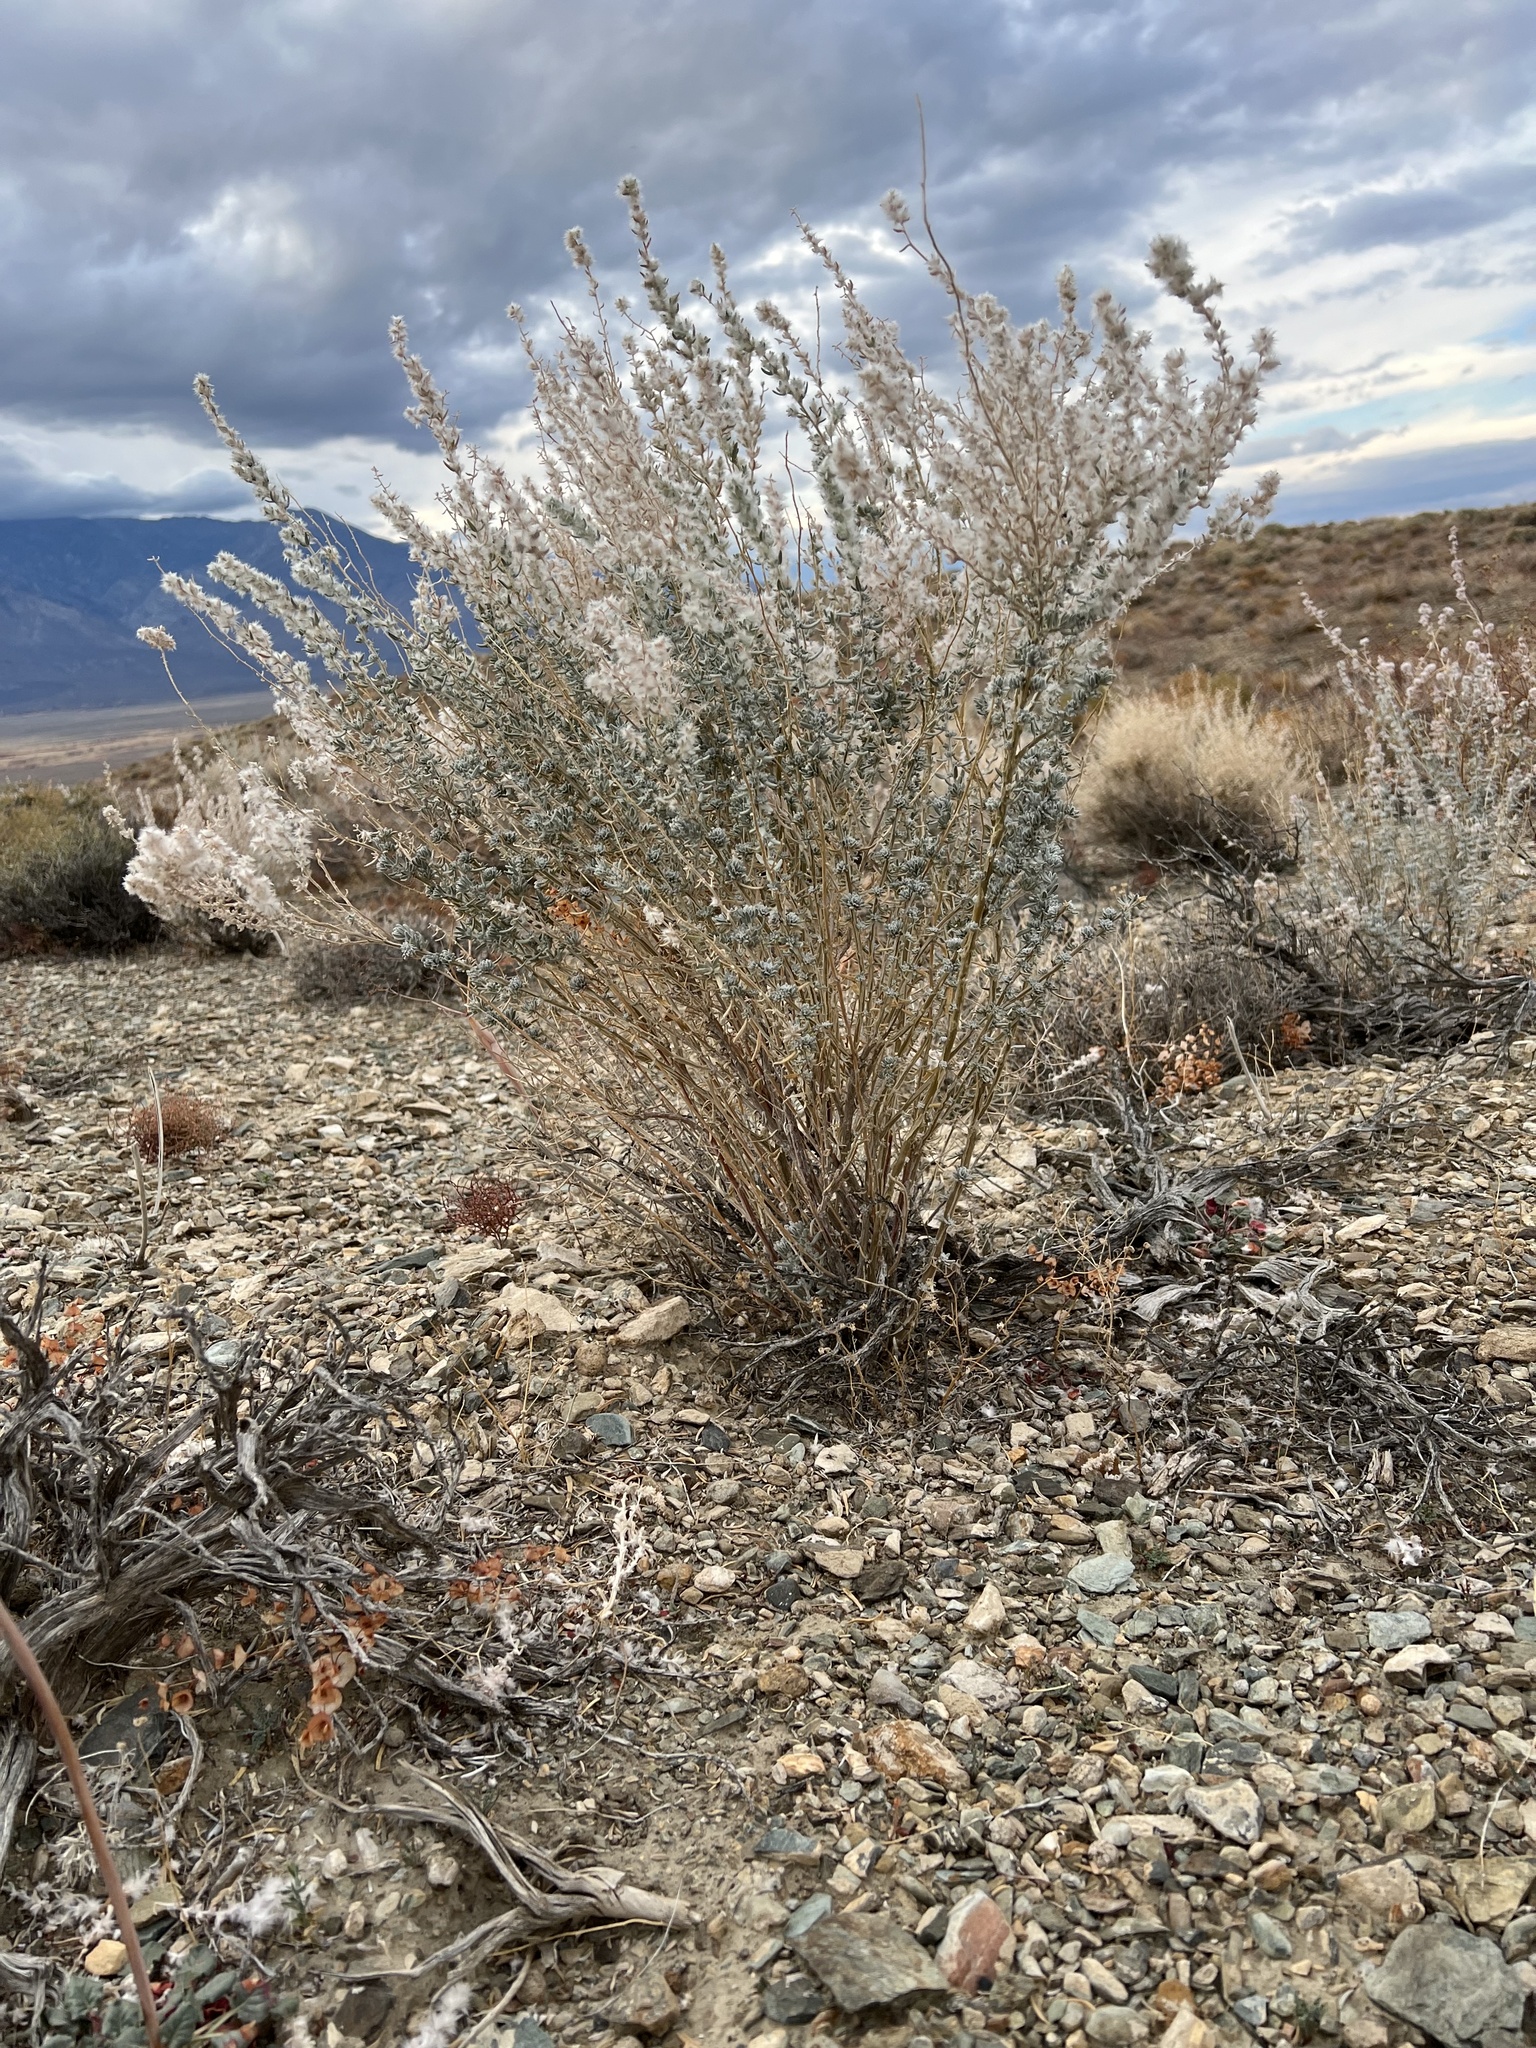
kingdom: Plantae
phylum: Tracheophyta
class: Magnoliopsida
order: Caryophyllales
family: Amaranthaceae
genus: Krascheninnikovia
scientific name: Krascheninnikovia lanata
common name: Winterfat
